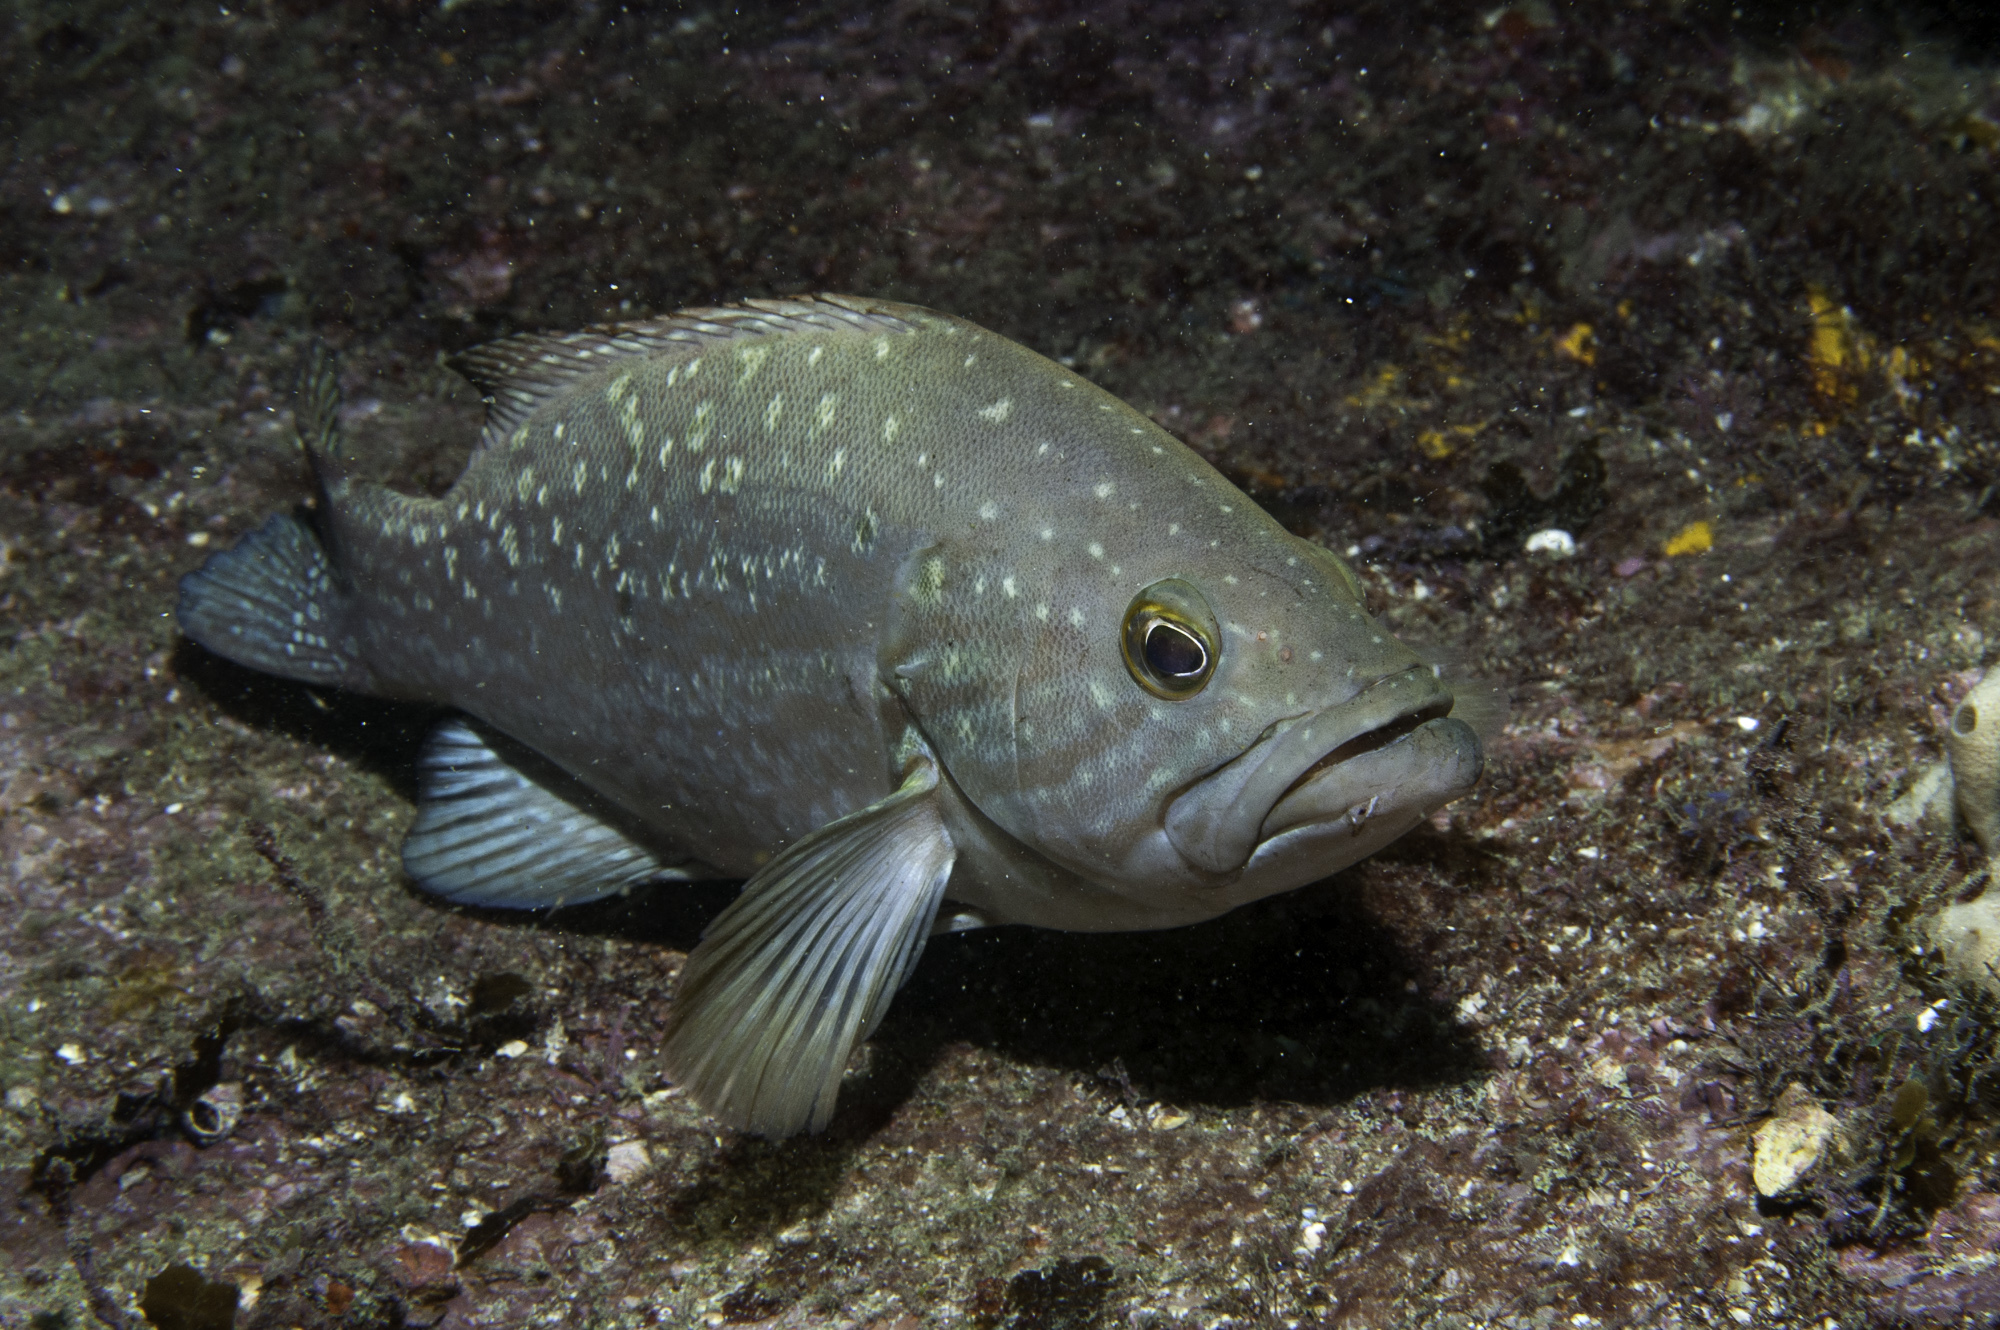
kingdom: Animalia
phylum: Chordata
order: Perciformes
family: Serranidae
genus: Mycteroperca
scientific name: Mycteroperca acutirostris
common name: Comb grouper
